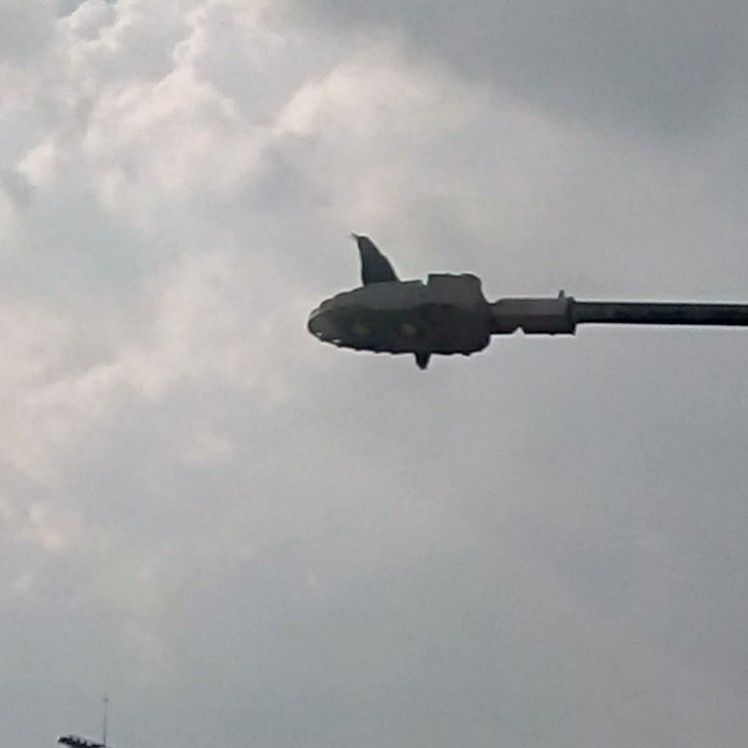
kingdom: Animalia
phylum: Chordata
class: Aves
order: Passeriformes
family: Icteridae
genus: Quiscalus
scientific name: Quiscalus mexicanus
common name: Great-tailed grackle
